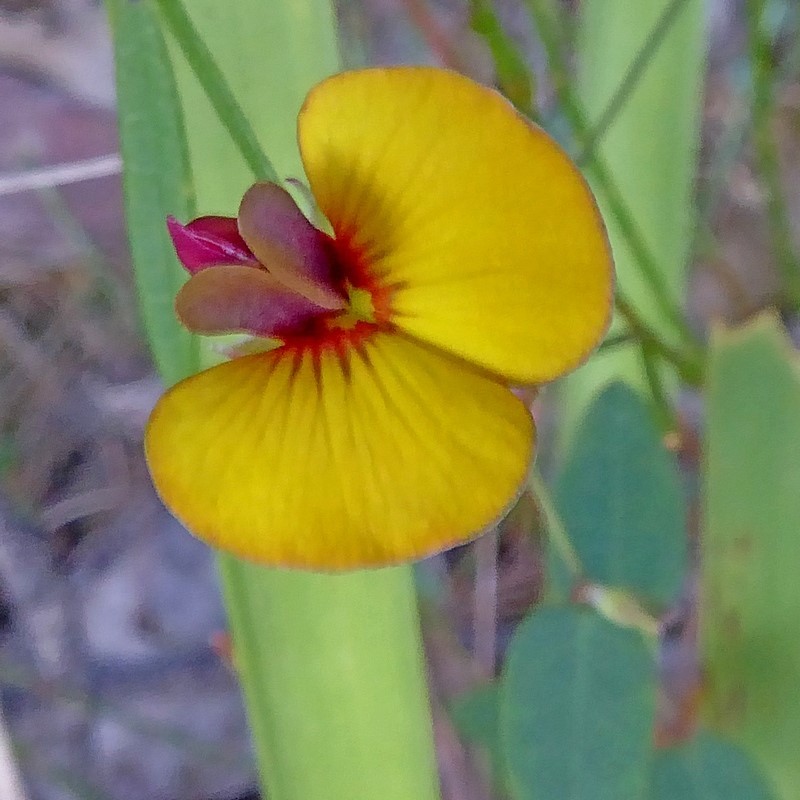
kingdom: Plantae
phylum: Tracheophyta
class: Magnoliopsida
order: Fabales
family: Fabaceae
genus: Bossiaea
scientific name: Bossiaea prostrata
